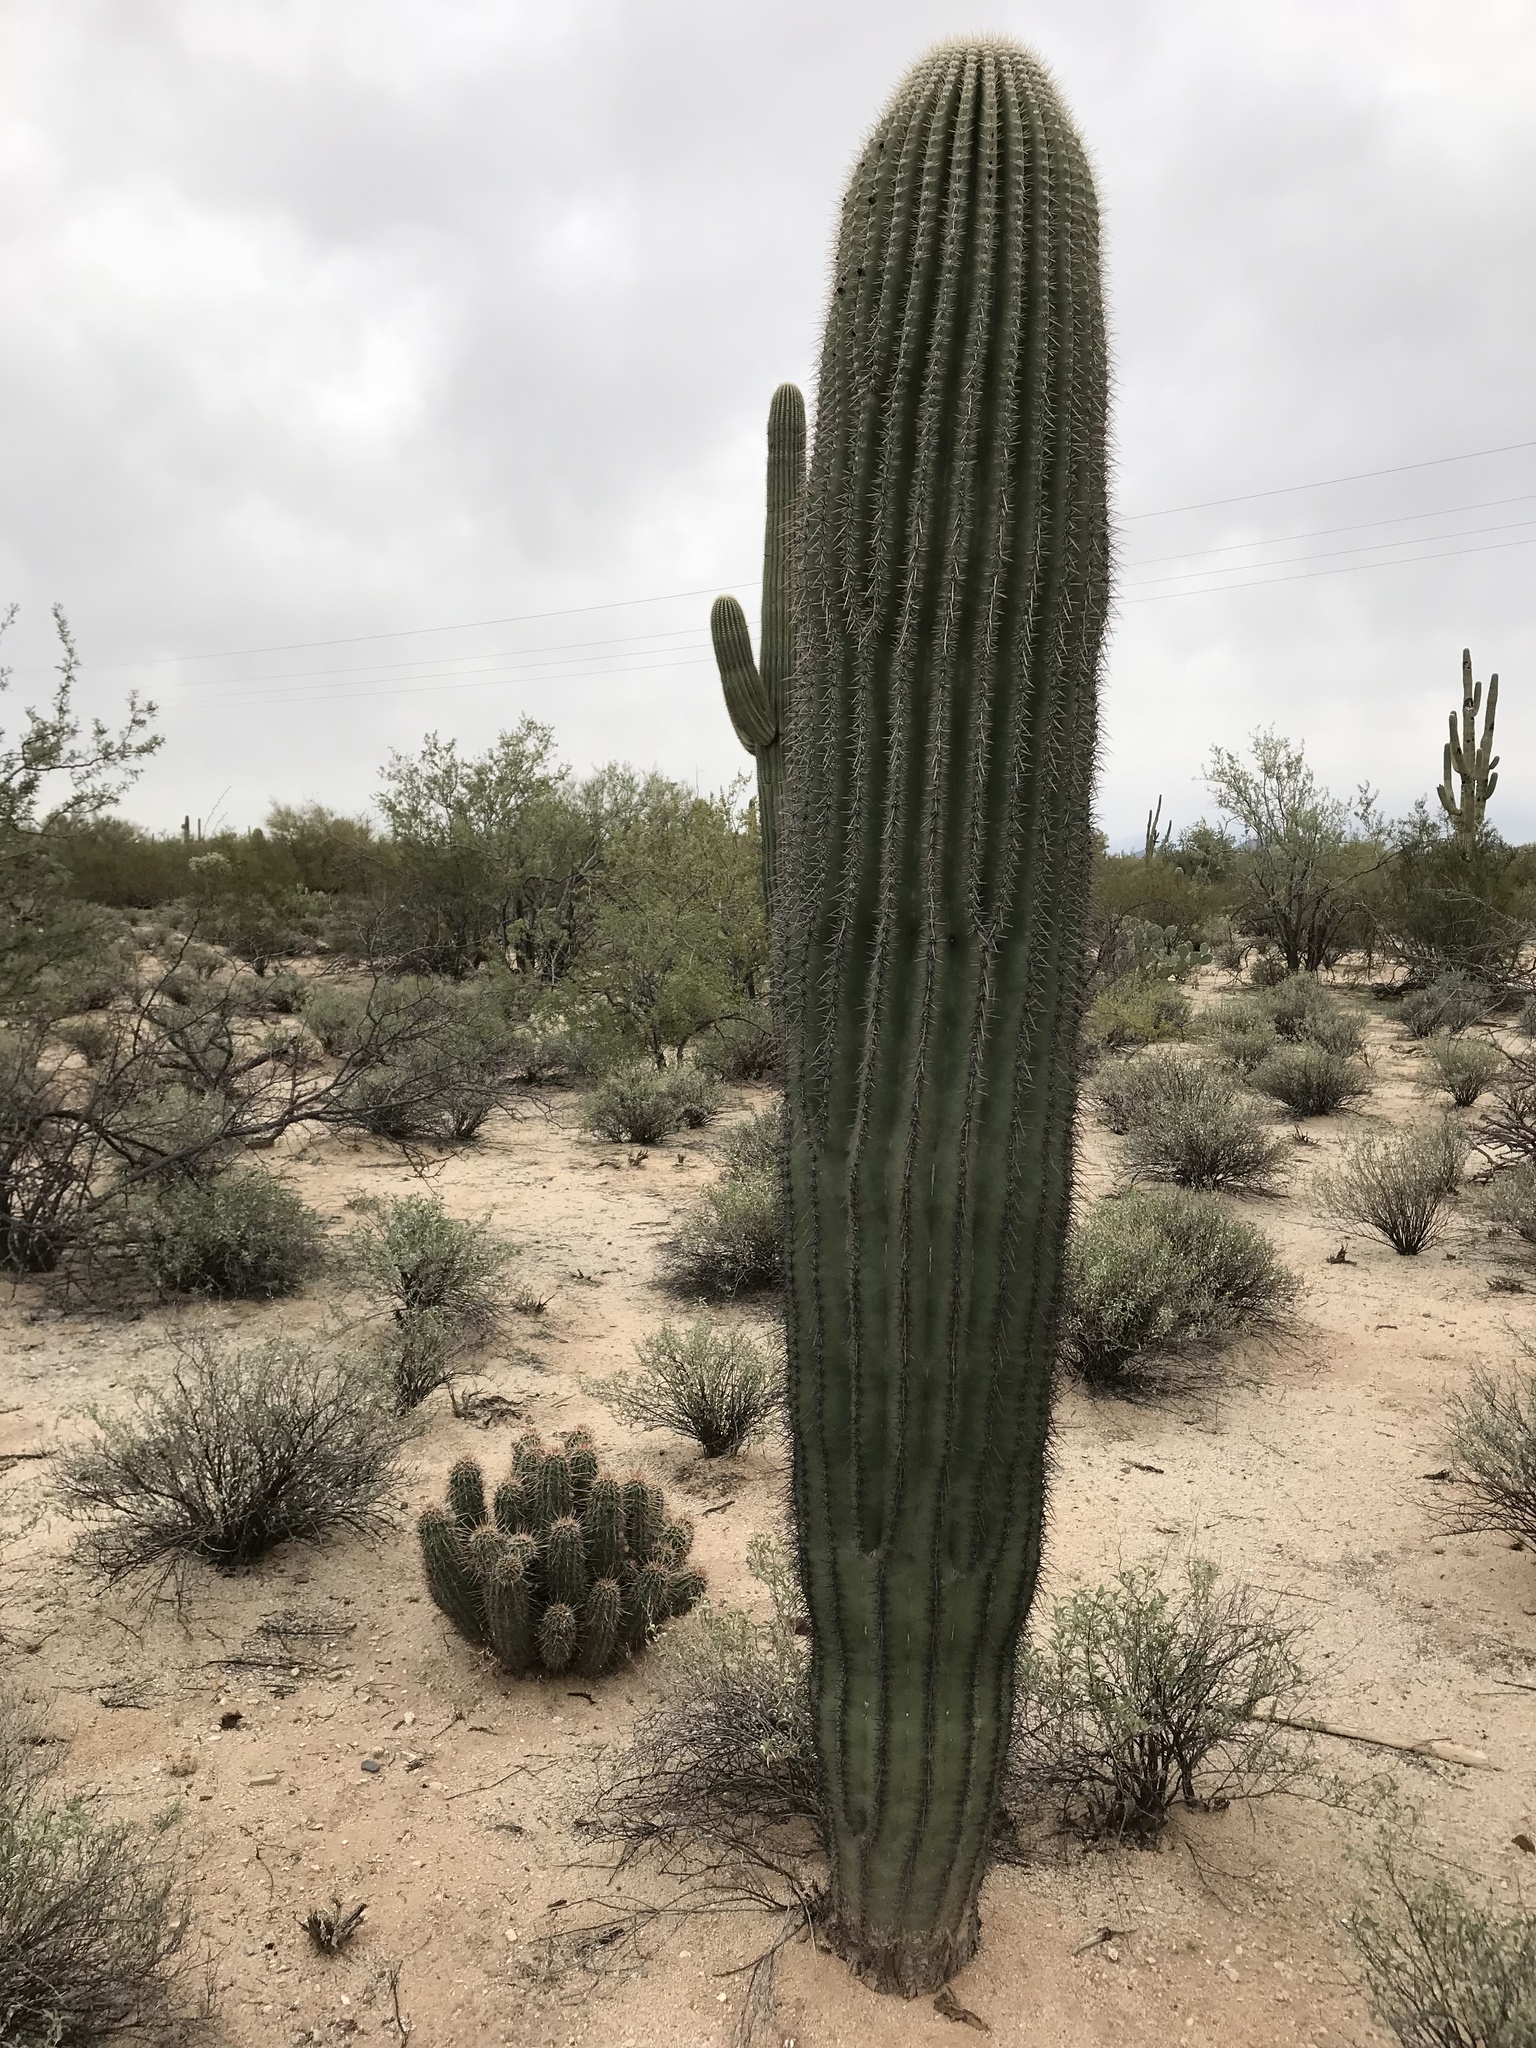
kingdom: Plantae
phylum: Tracheophyta
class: Magnoliopsida
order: Caryophyllales
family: Cactaceae
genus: Carnegiea
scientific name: Carnegiea gigantea
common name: Saguaro
